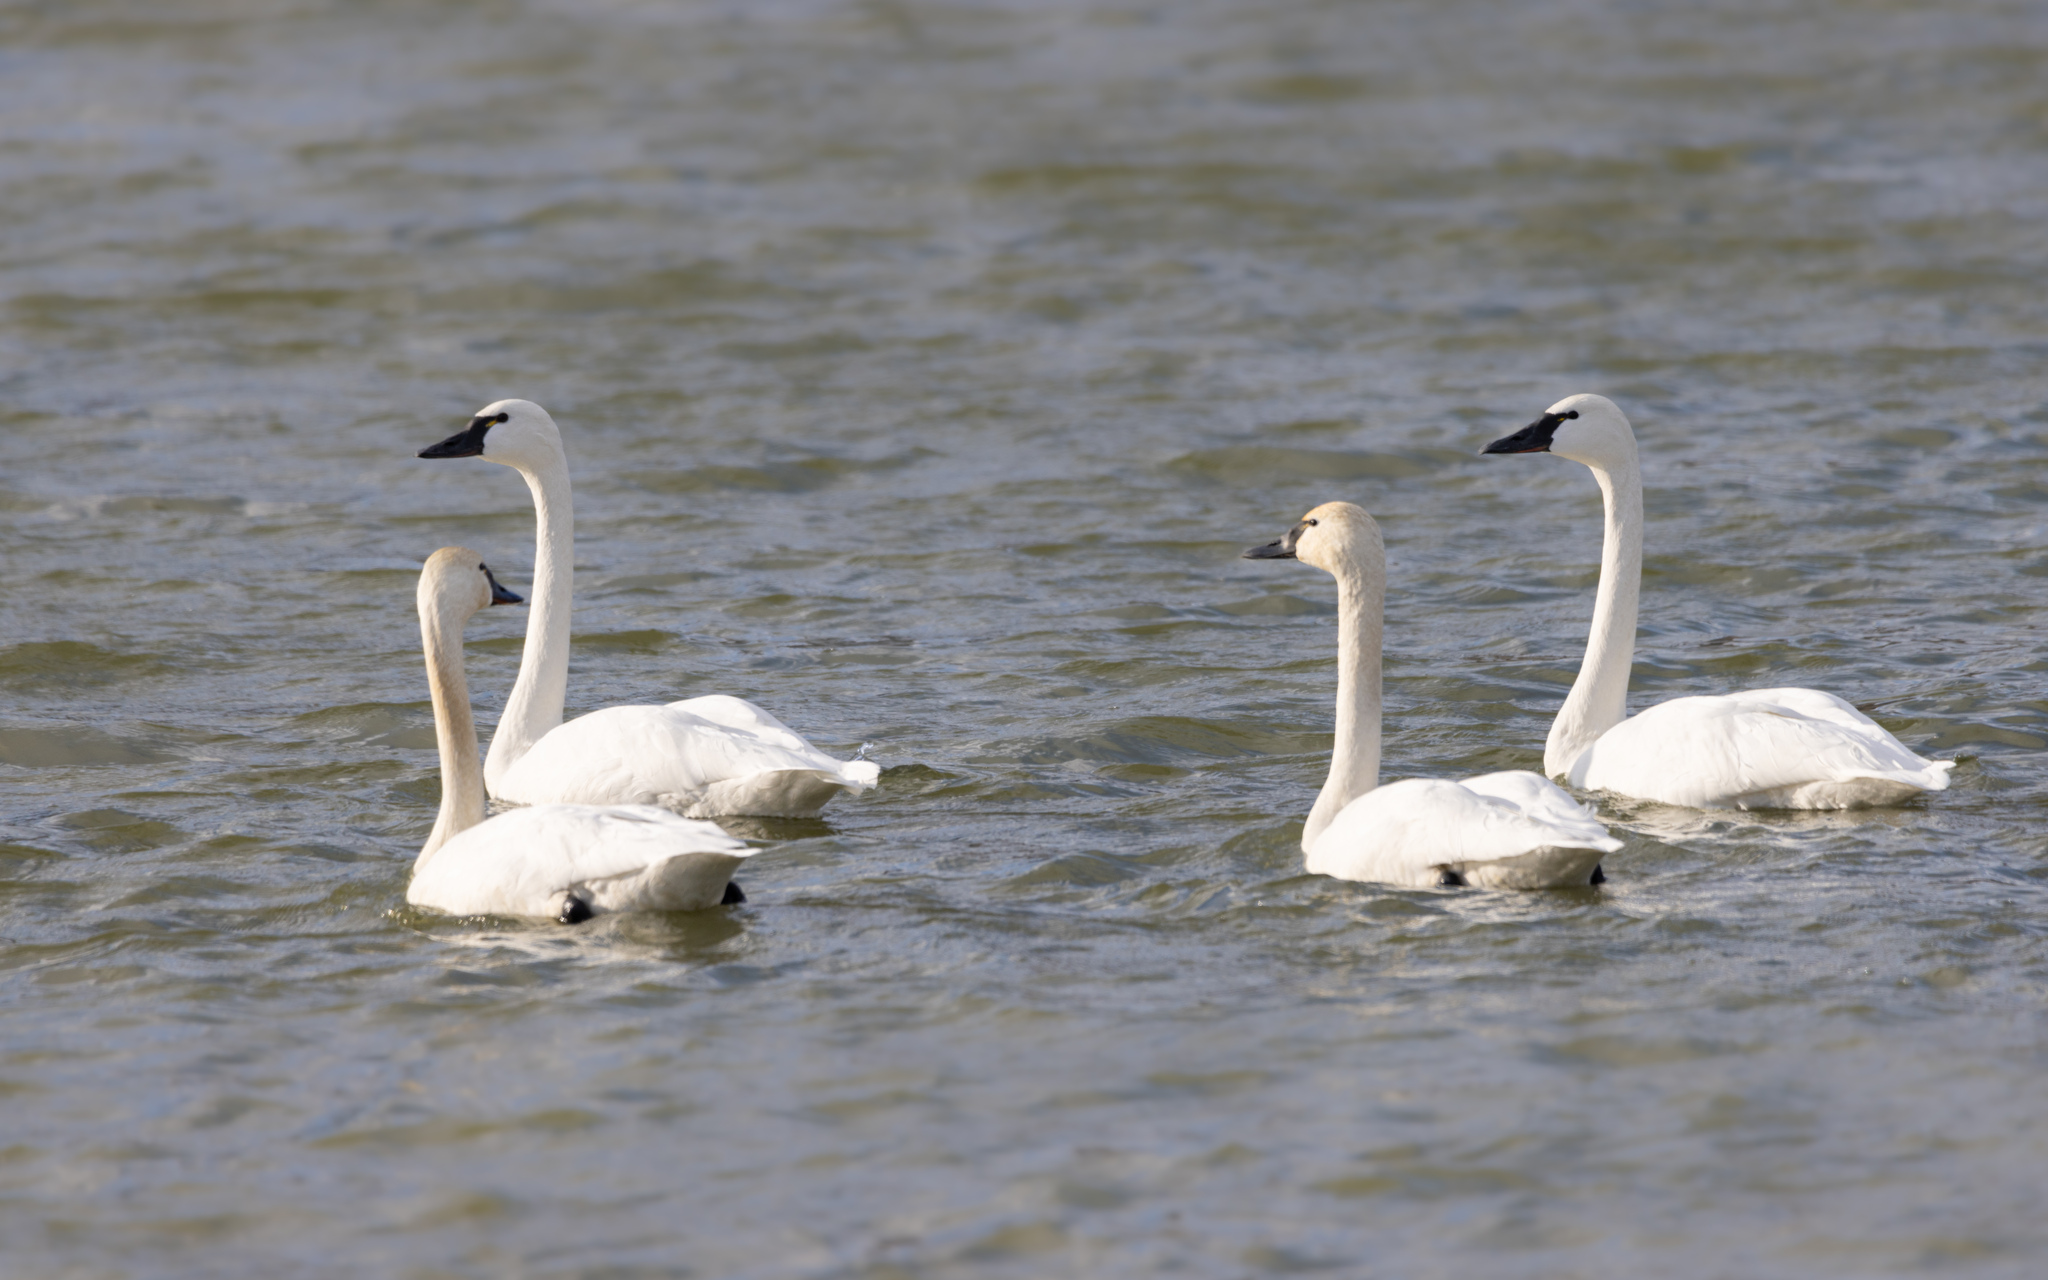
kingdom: Animalia
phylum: Chordata
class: Aves
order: Anseriformes
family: Anatidae
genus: Cygnus
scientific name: Cygnus columbianus
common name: Tundra swan
